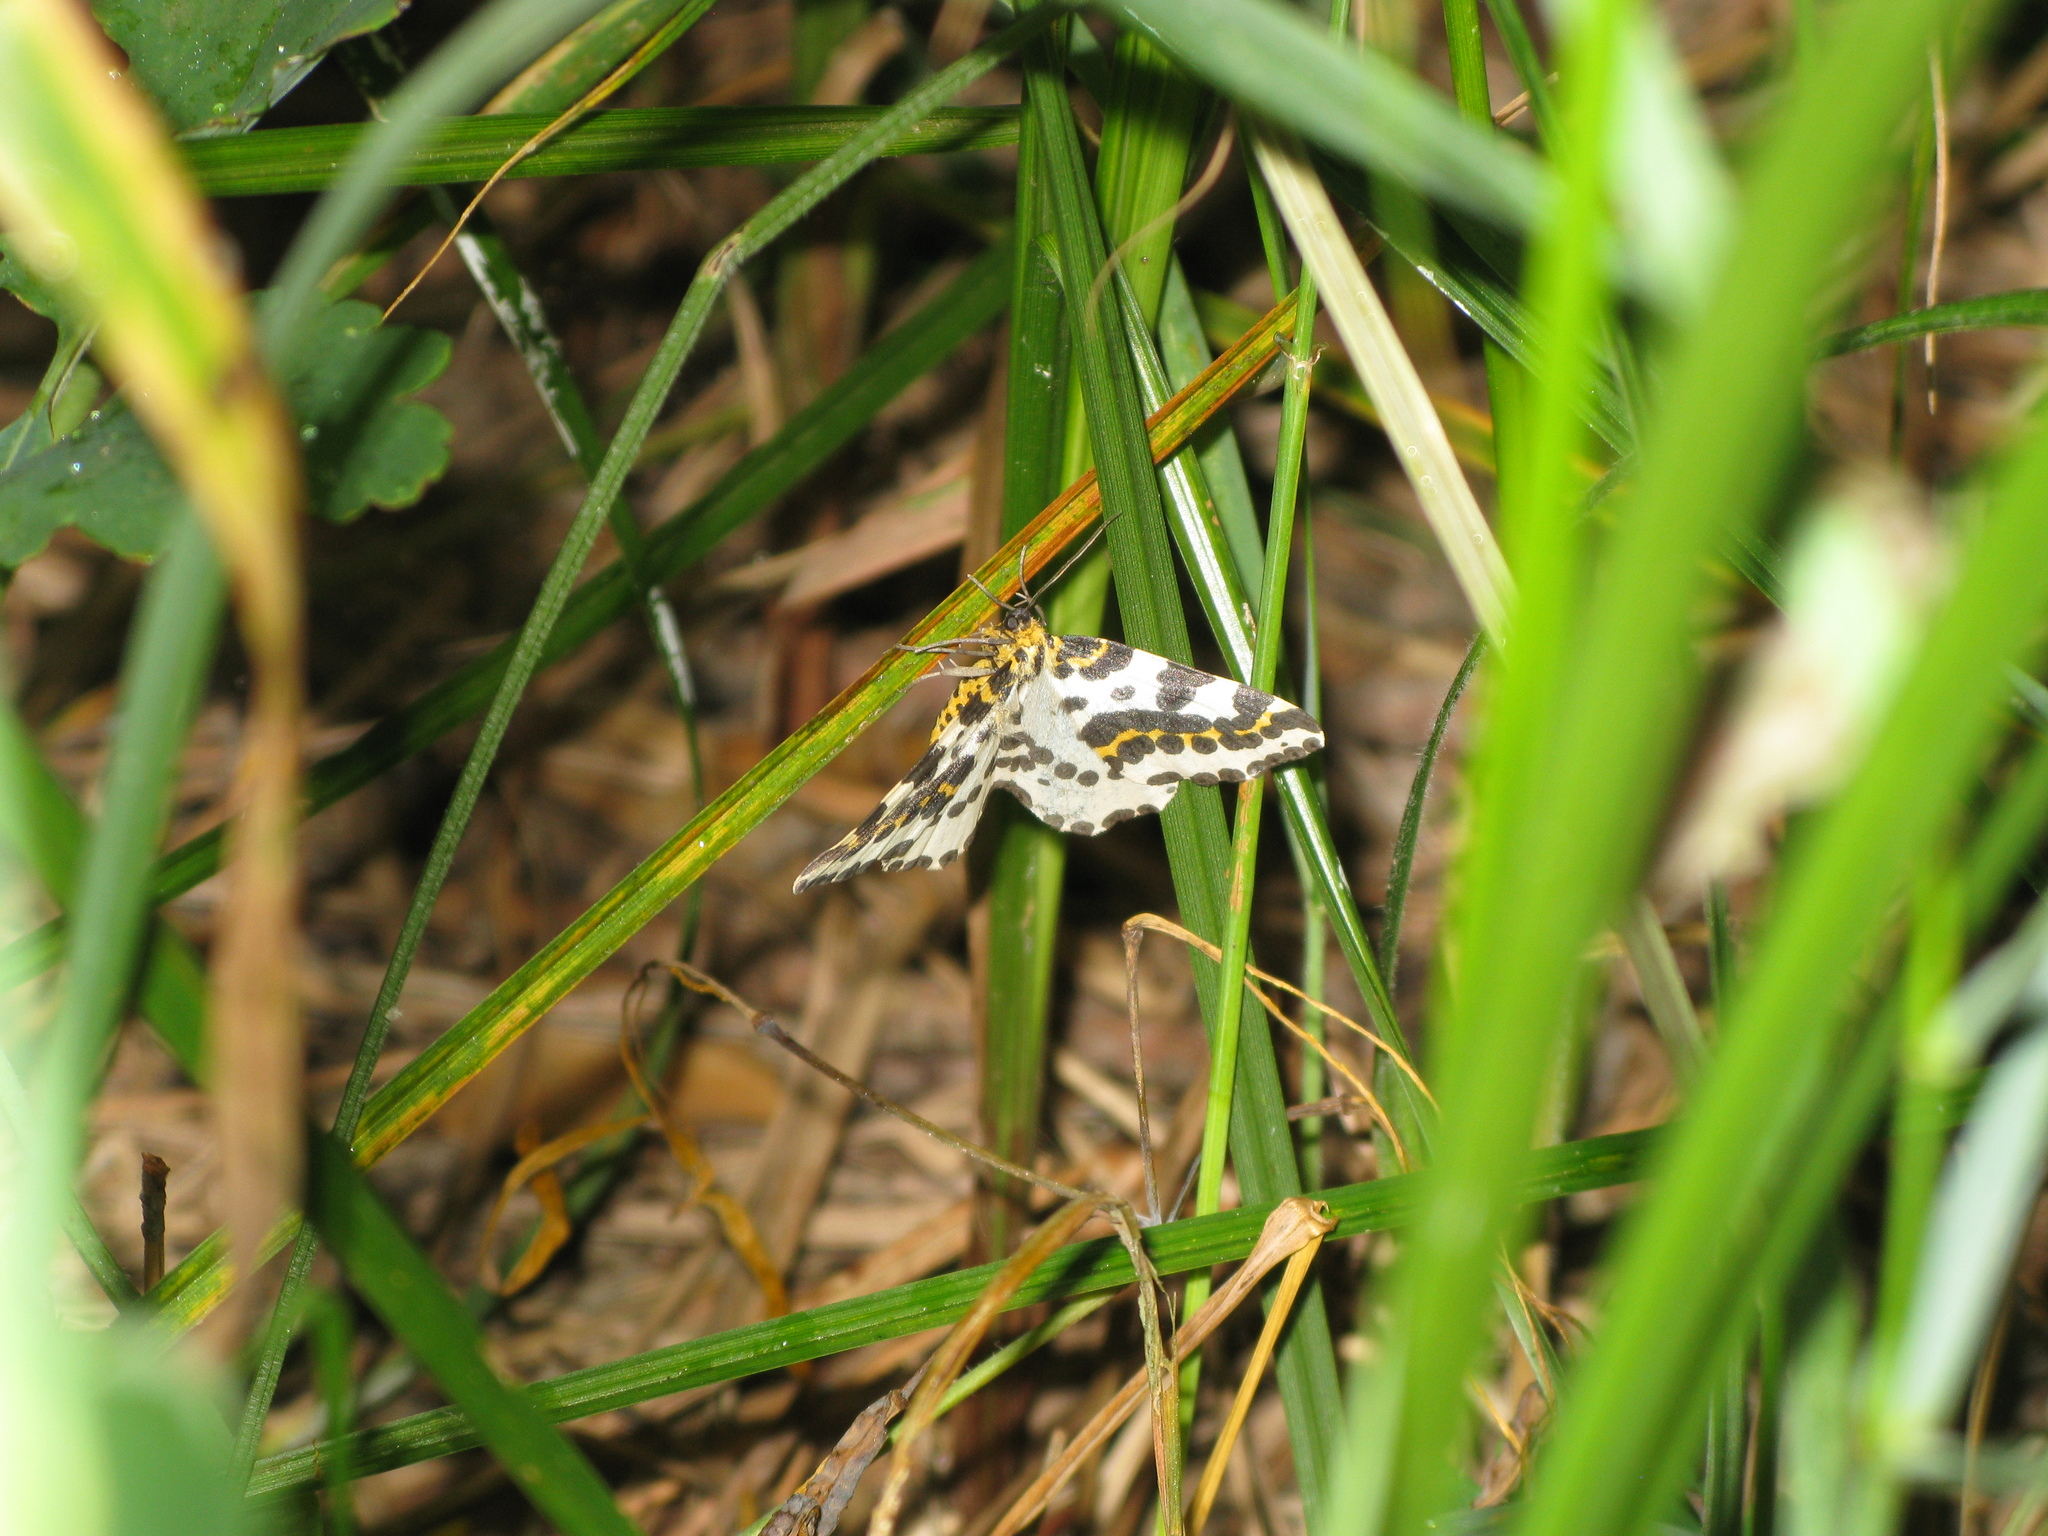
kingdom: Animalia
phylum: Arthropoda
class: Insecta
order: Lepidoptera
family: Geometridae
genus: Abraxas
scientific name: Abraxas grossulariata
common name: Magpie
